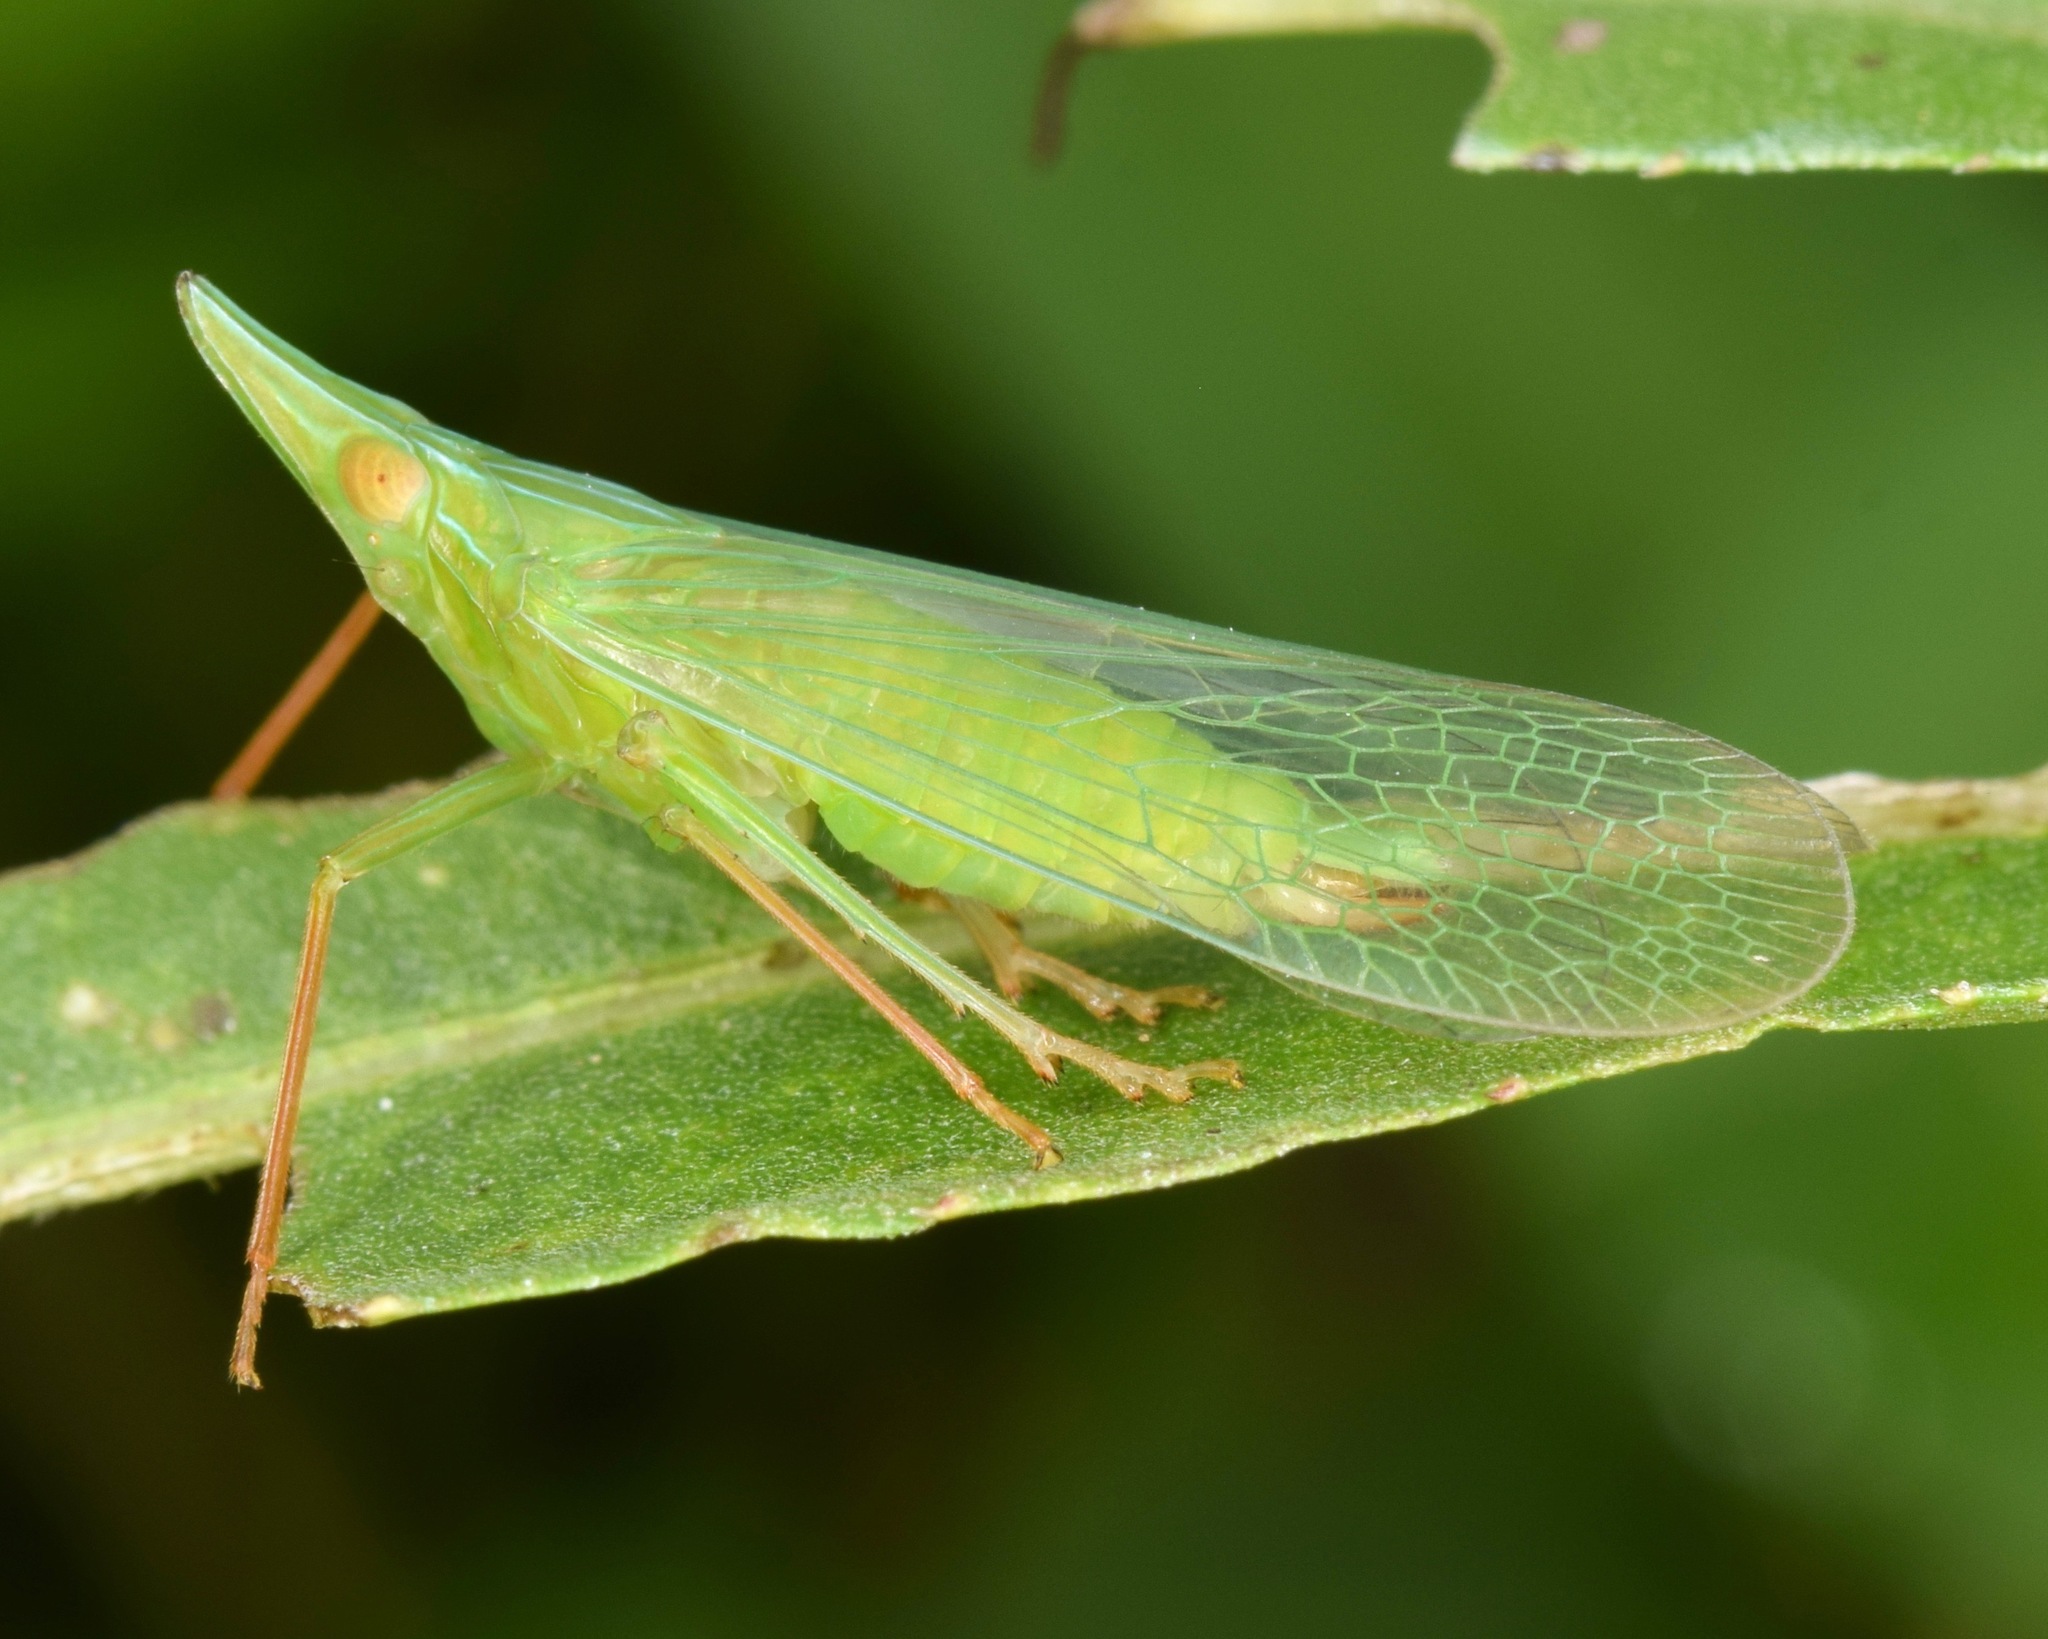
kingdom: Animalia
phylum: Arthropoda
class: Insecta
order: Hemiptera
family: Dictyopharidae
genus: Rhynchomitra
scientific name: Rhynchomitra microrhina
